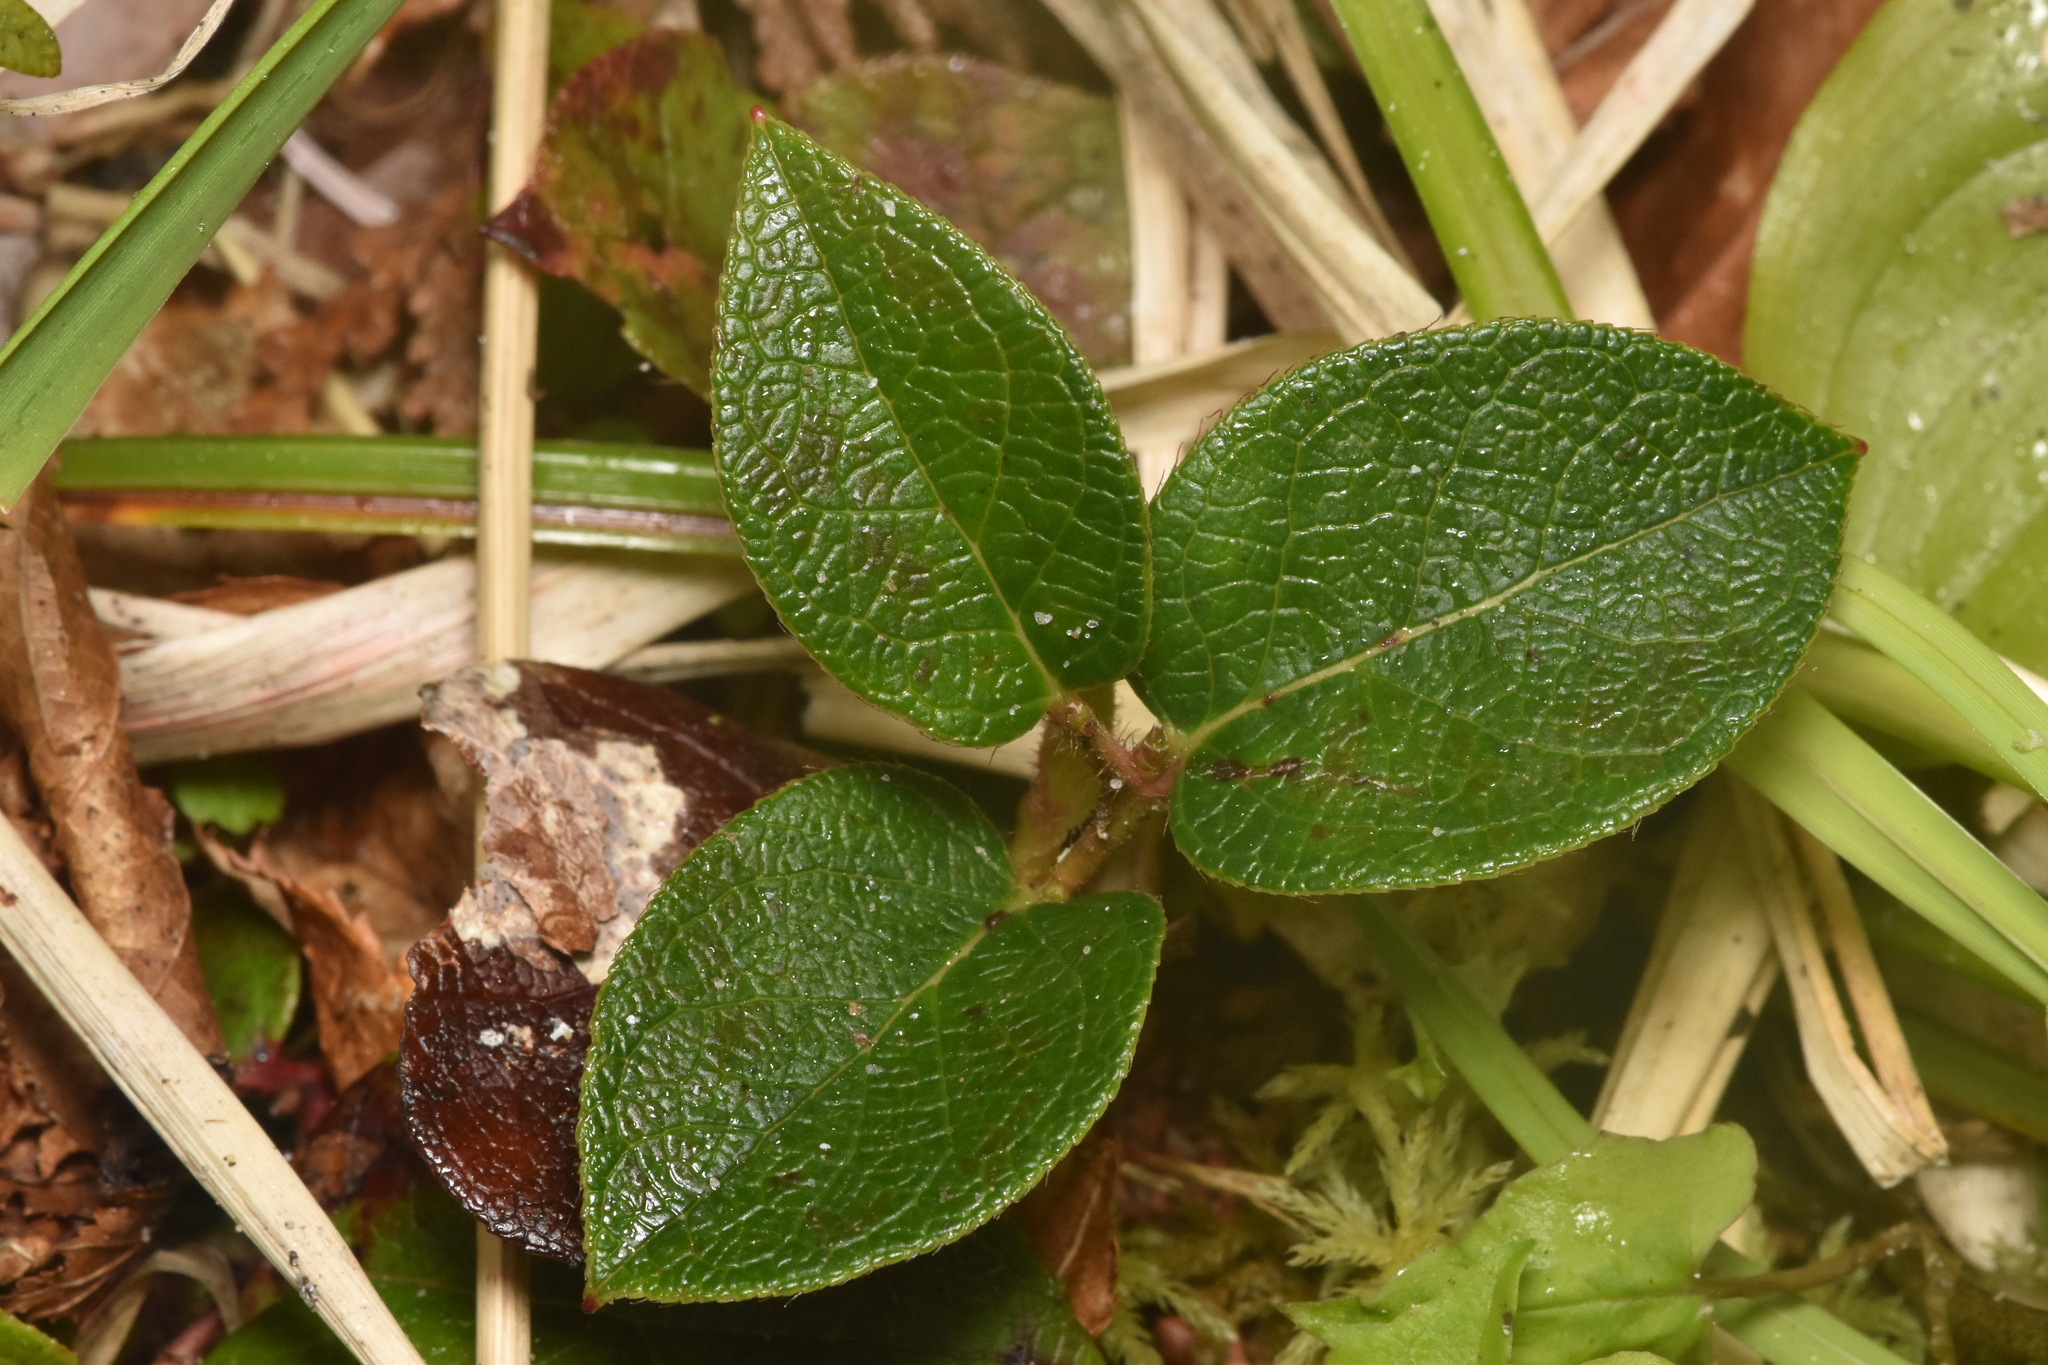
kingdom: Plantae
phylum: Tracheophyta
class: Magnoliopsida
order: Ericales
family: Ericaceae
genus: Gaultheria
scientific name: Gaultheria shallon
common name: Shallon
